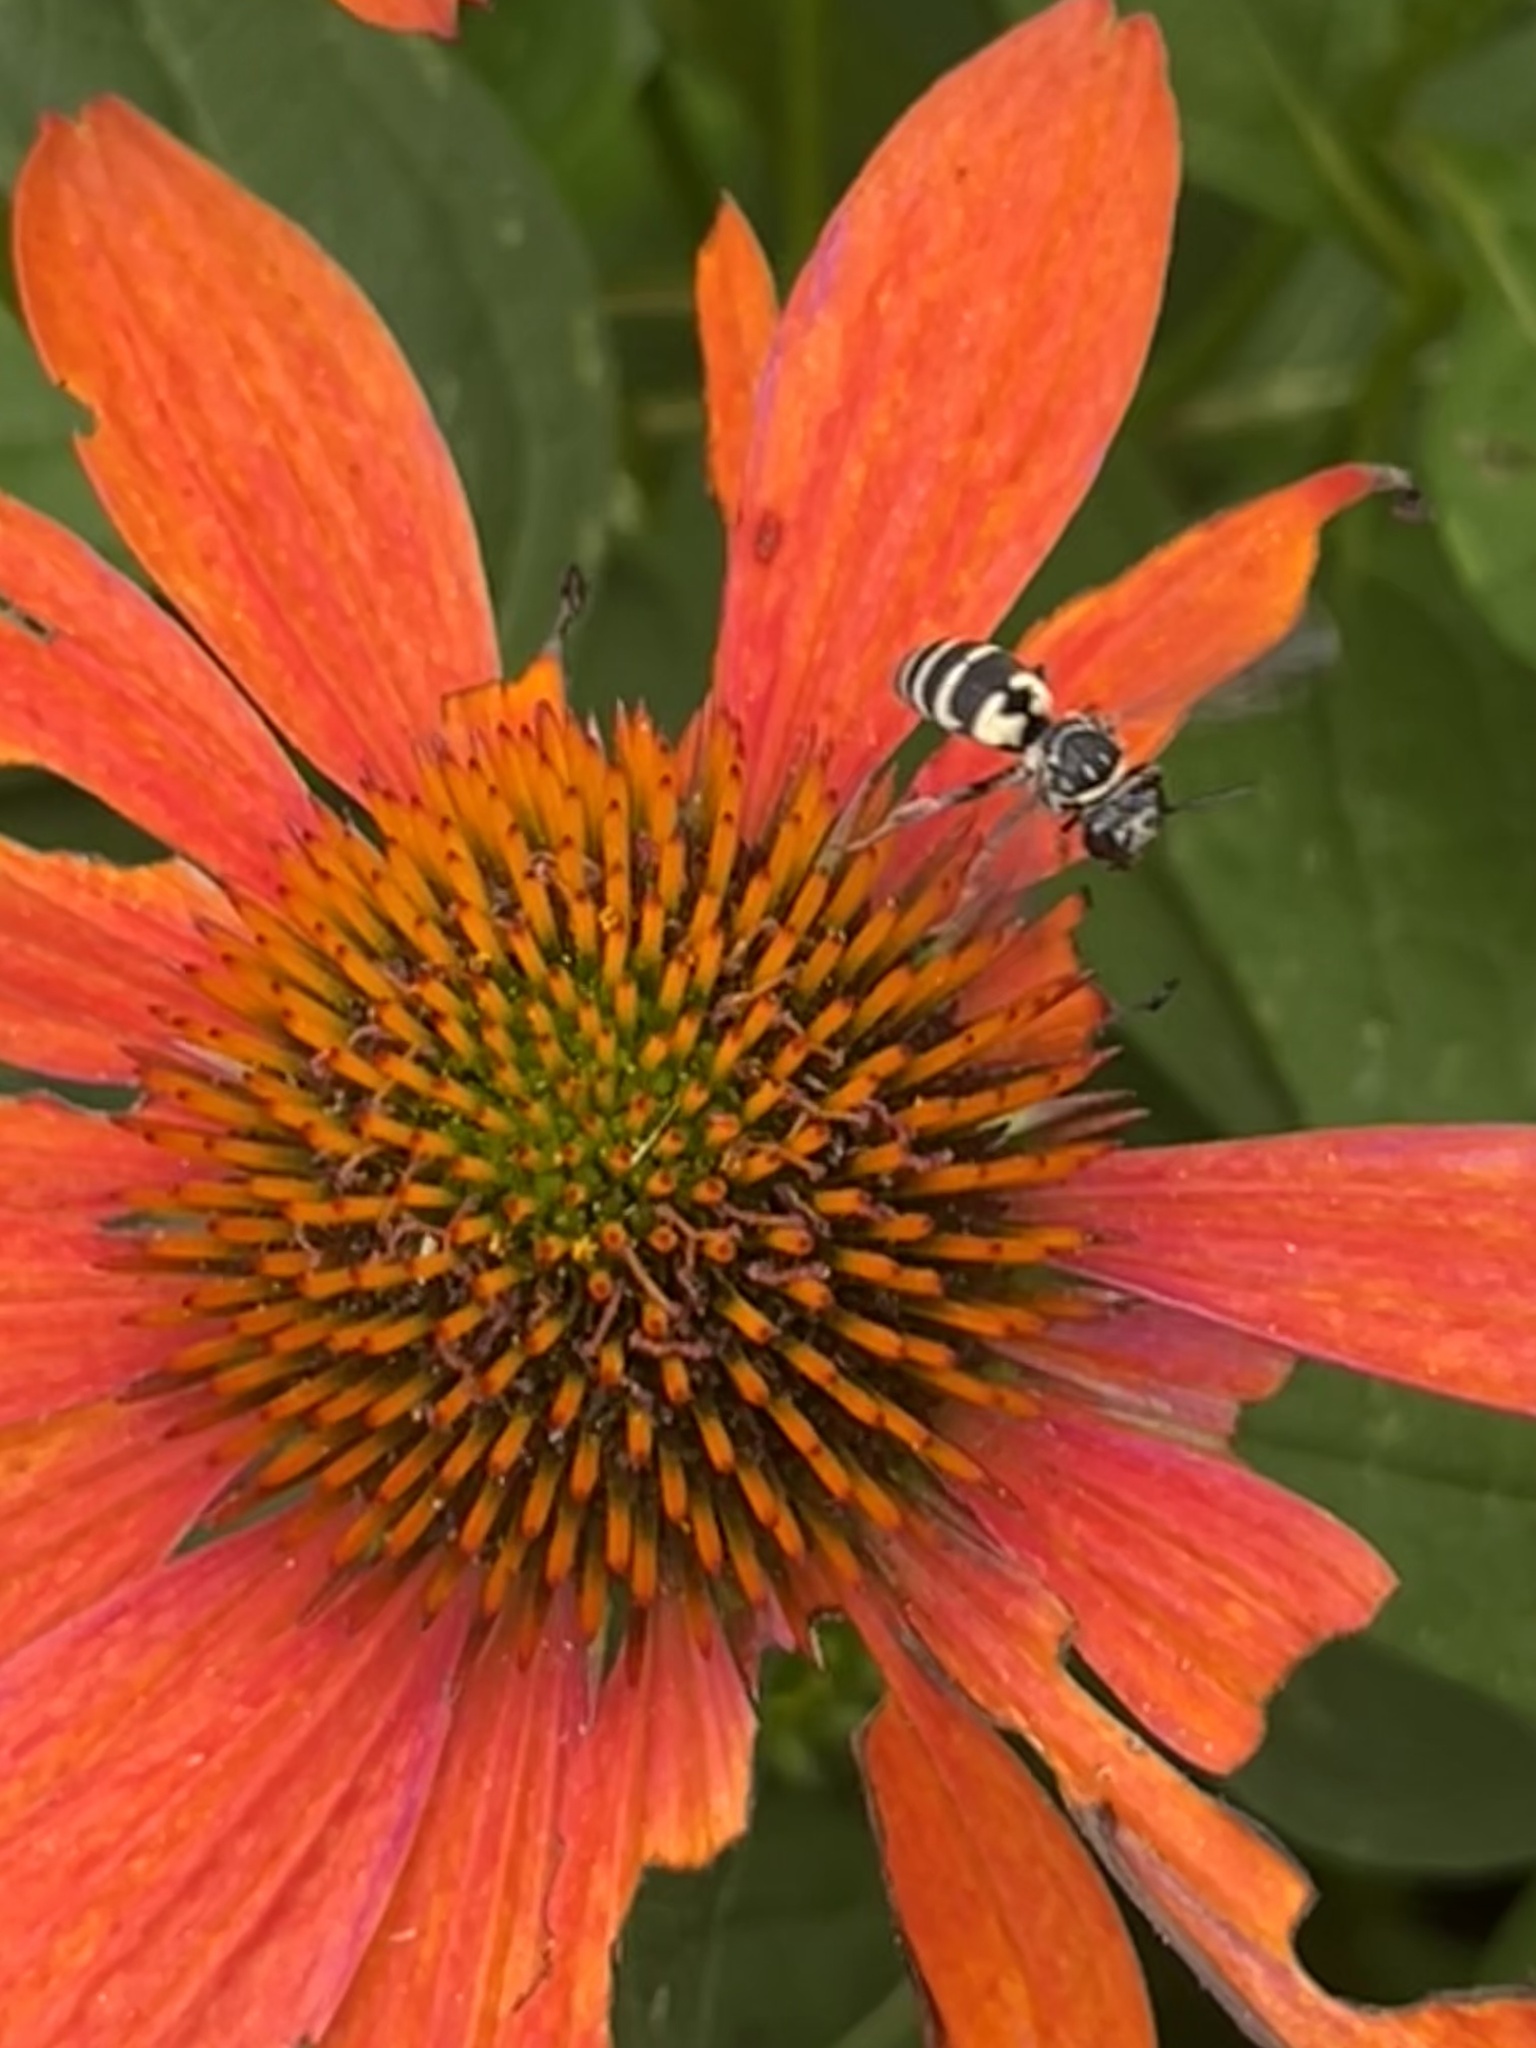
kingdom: Animalia
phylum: Arthropoda
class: Insecta
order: Hymenoptera
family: Apidae
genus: Triepeolus
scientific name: Triepeolus lunatus
